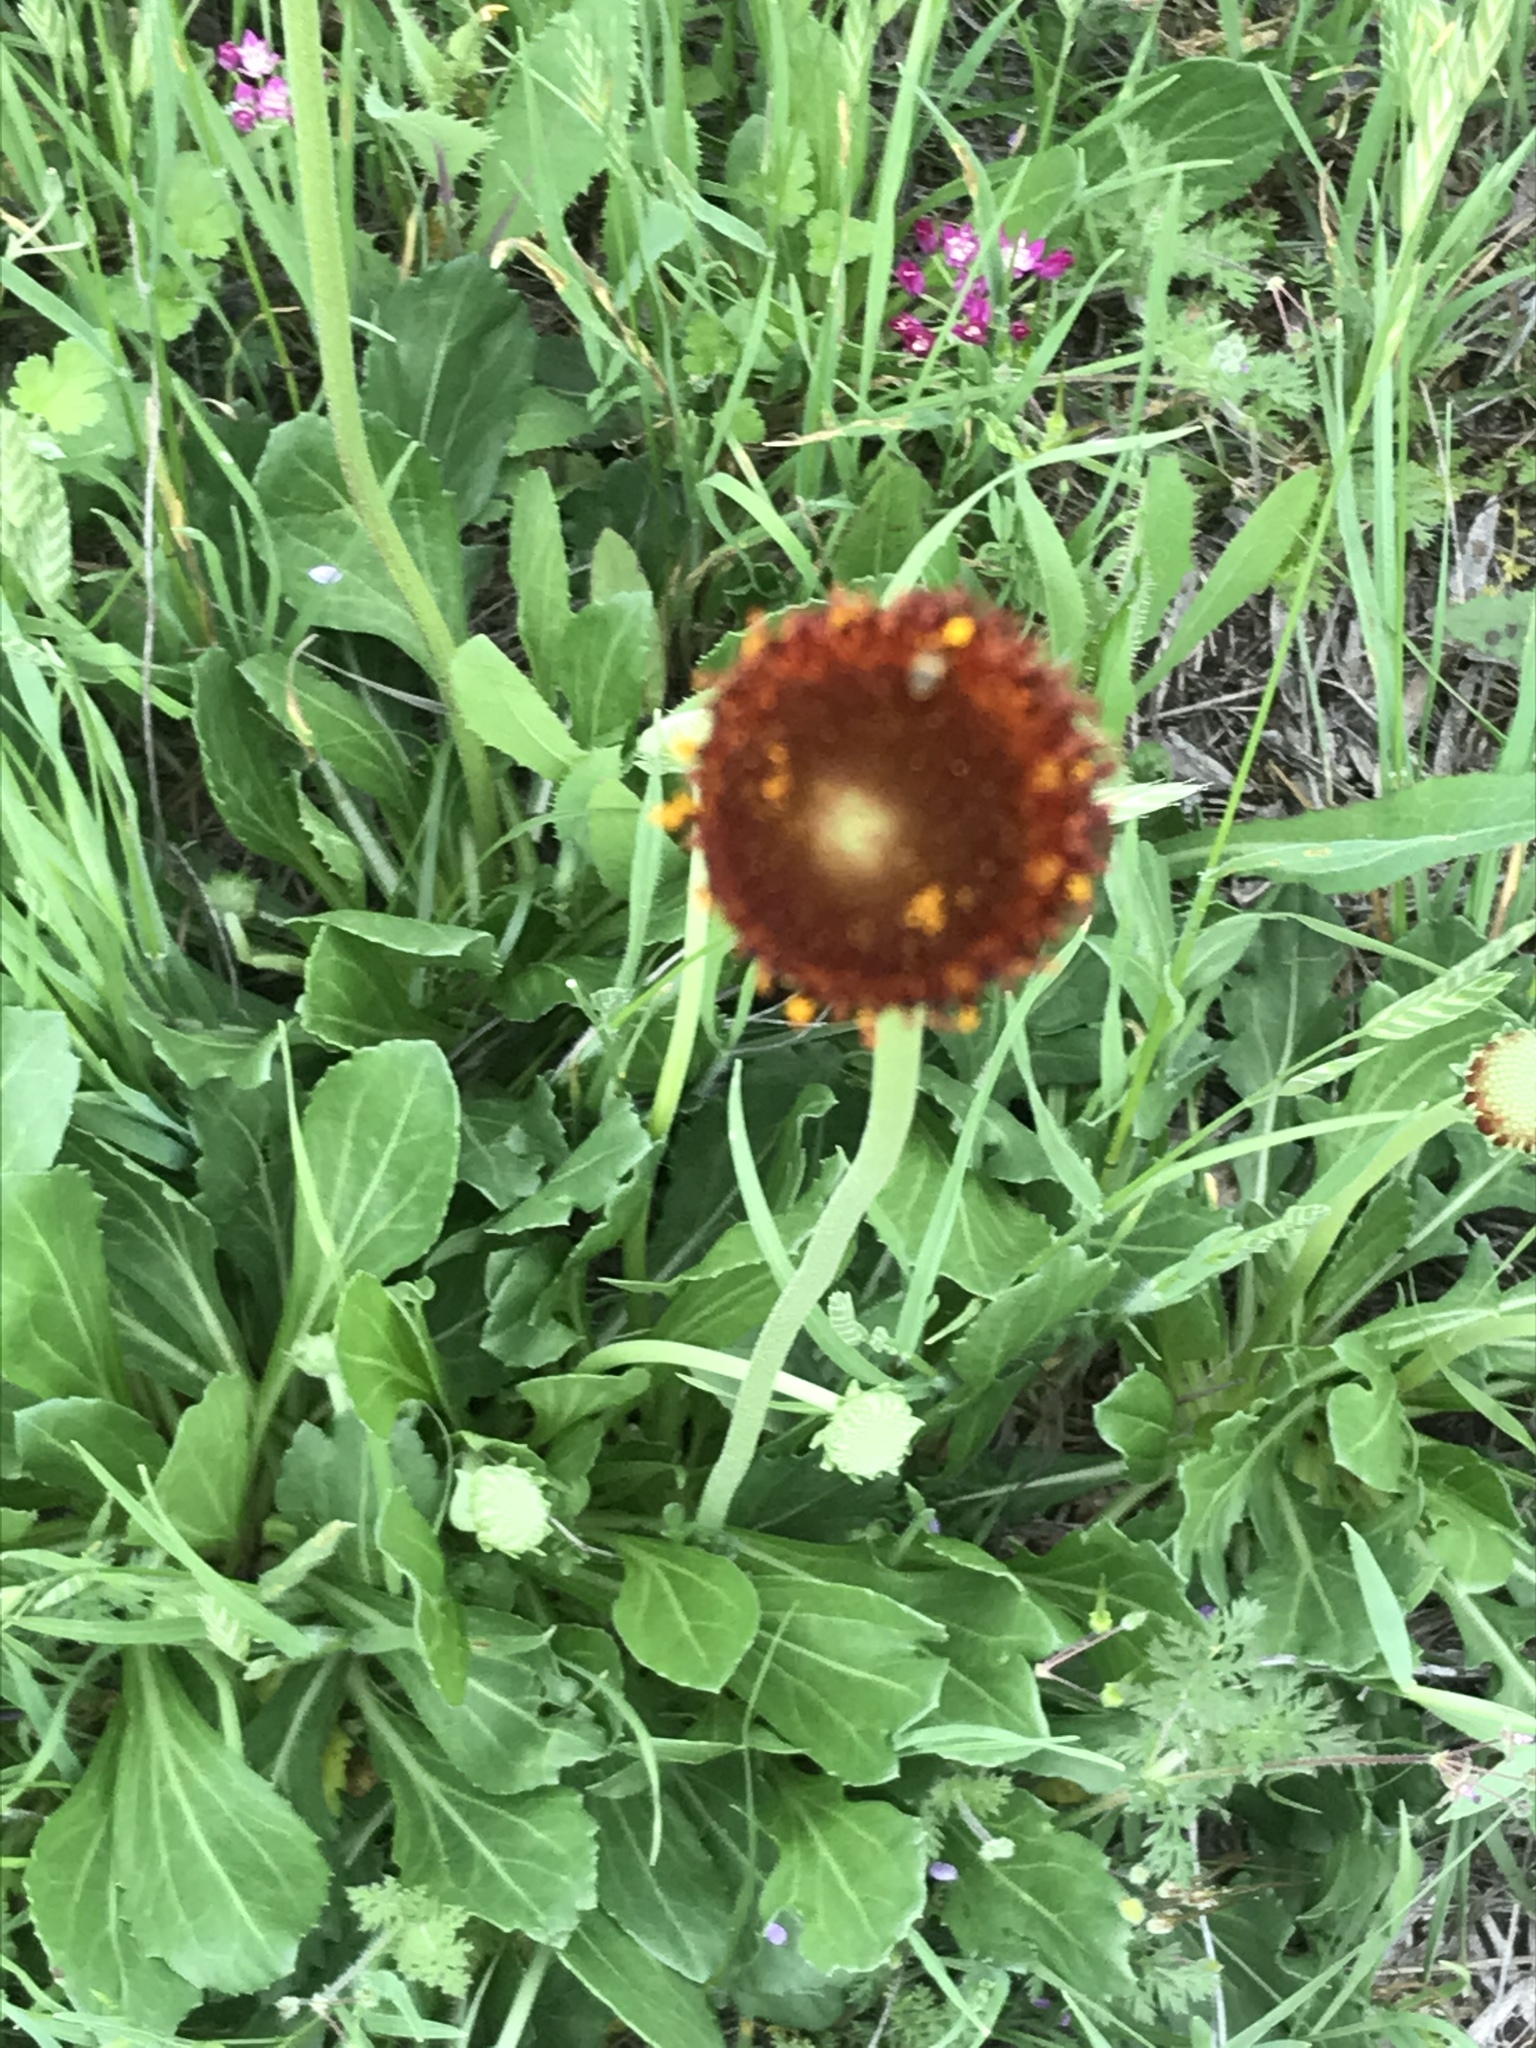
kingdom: Plantae
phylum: Tracheophyta
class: Magnoliopsida
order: Asterales
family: Asteraceae
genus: Gaillardia
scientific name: Gaillardia suavis
